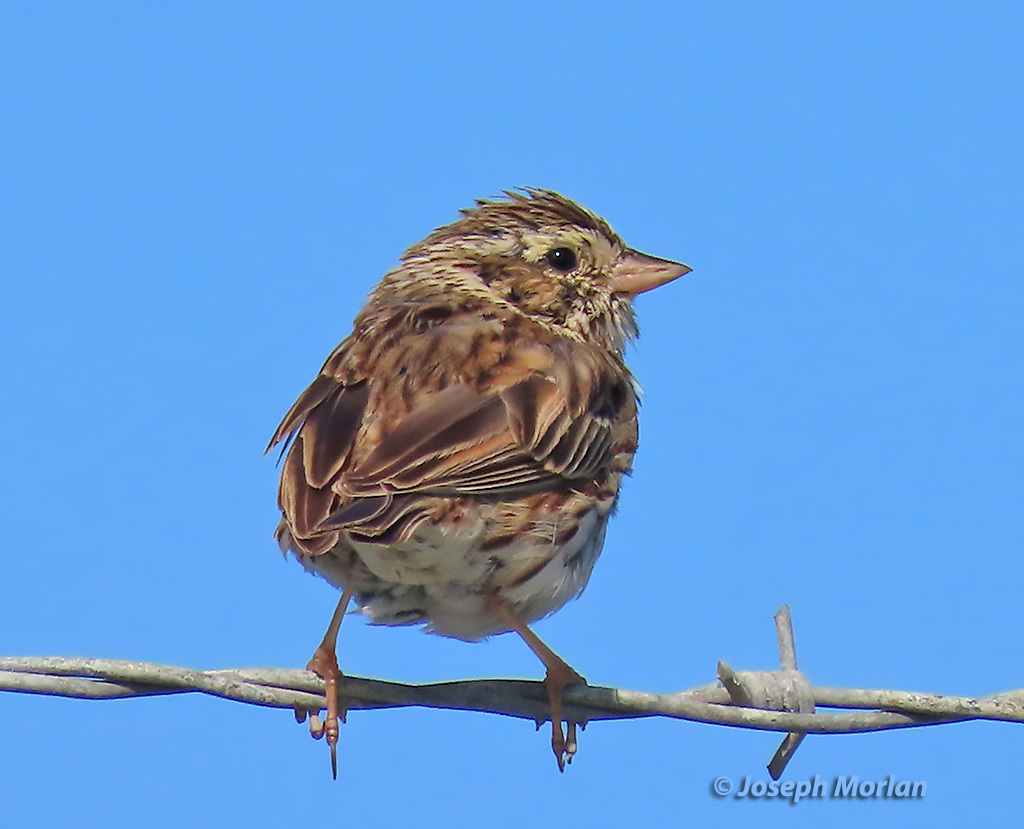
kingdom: Animalia
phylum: Chordata
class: Aves
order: Passeriformes
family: Passerellidae
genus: Passerculus
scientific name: Passerculus sandwichensis
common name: Savannah sparrow
